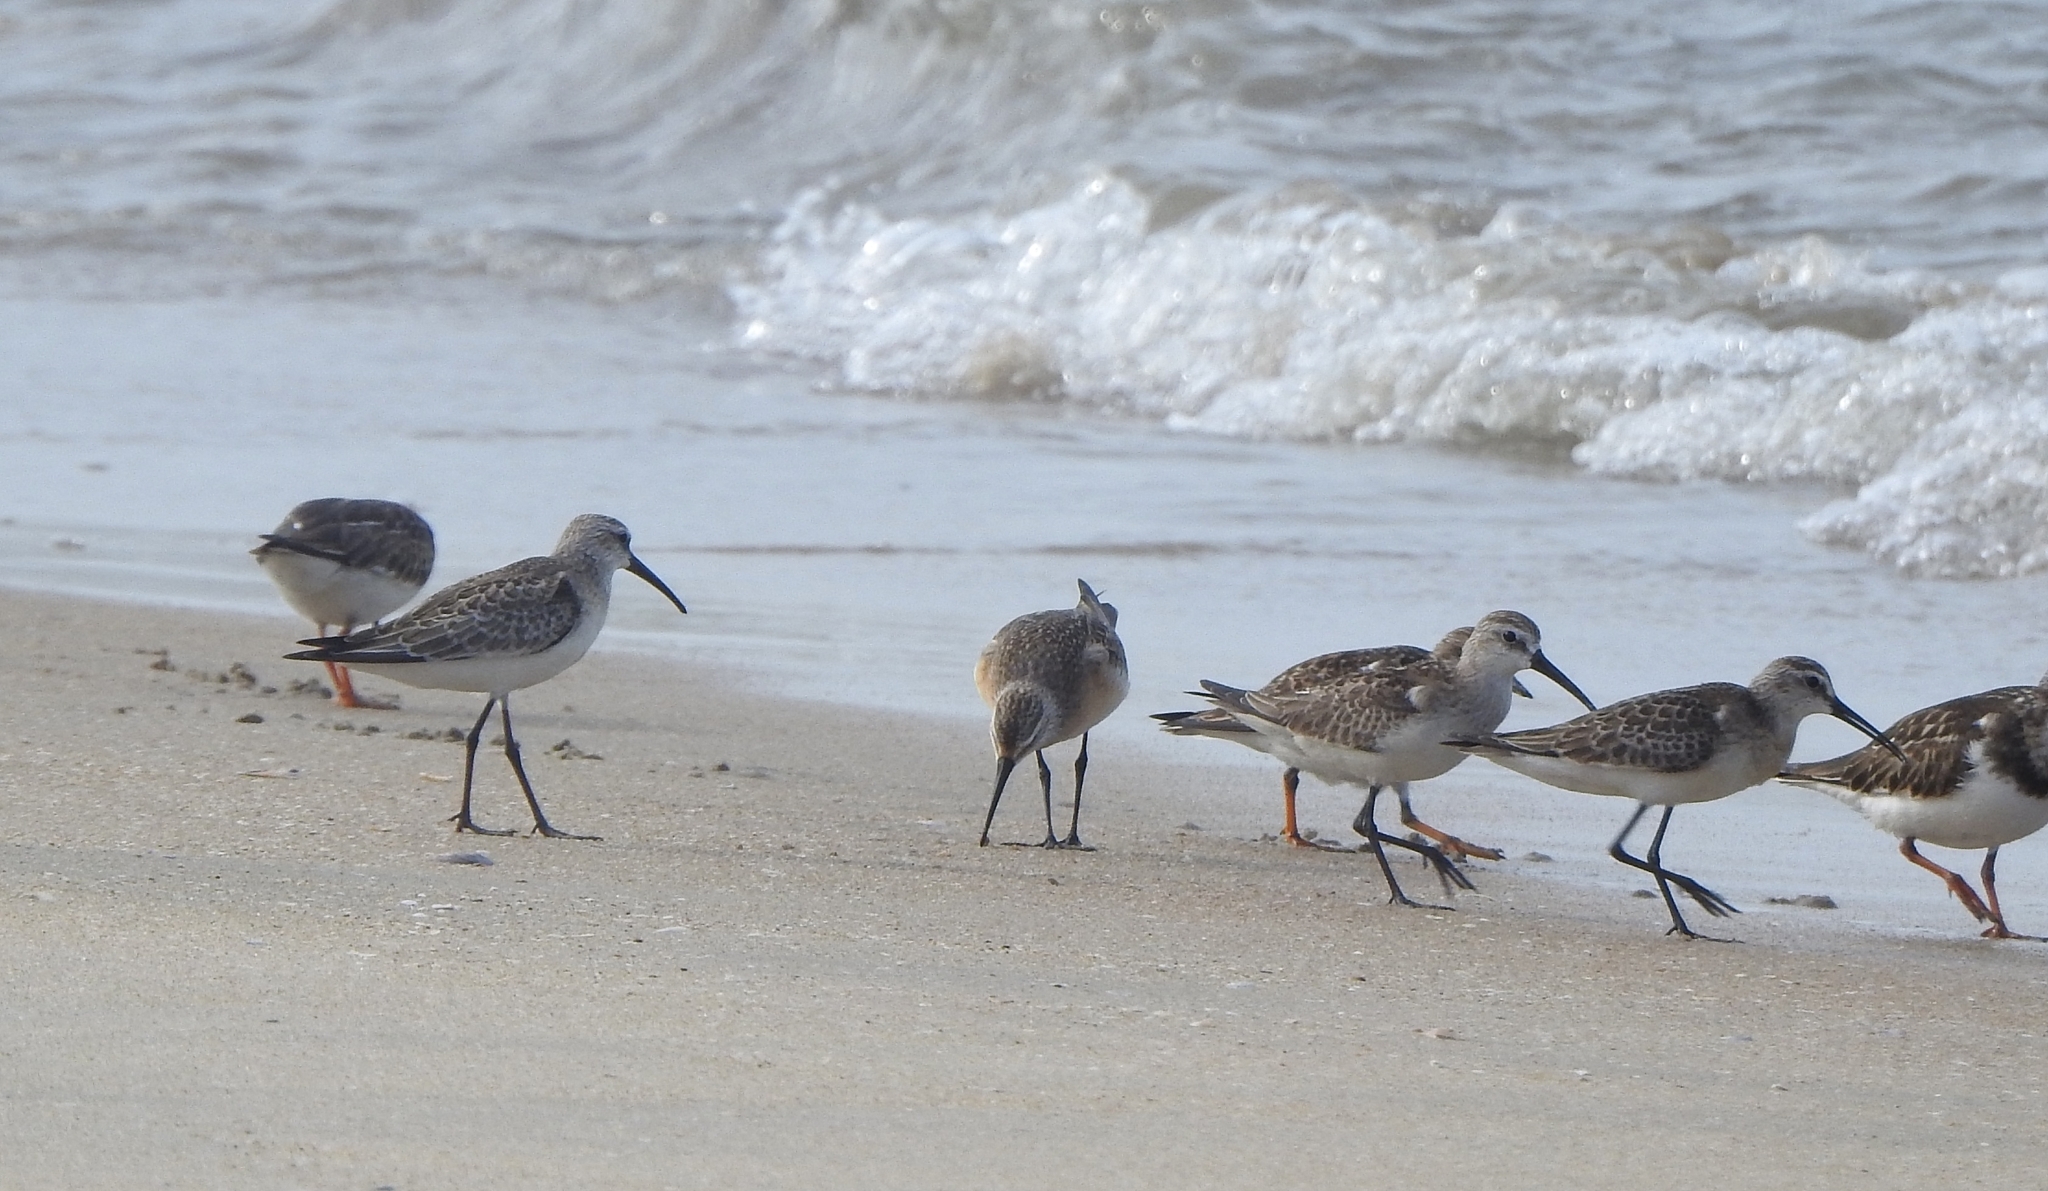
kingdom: Animalia
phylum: Chordata
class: Aves
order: Charadriiformes
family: Scolopacidae
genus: Calidris
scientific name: Calidris ferruginea
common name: Curlew sandpiper
